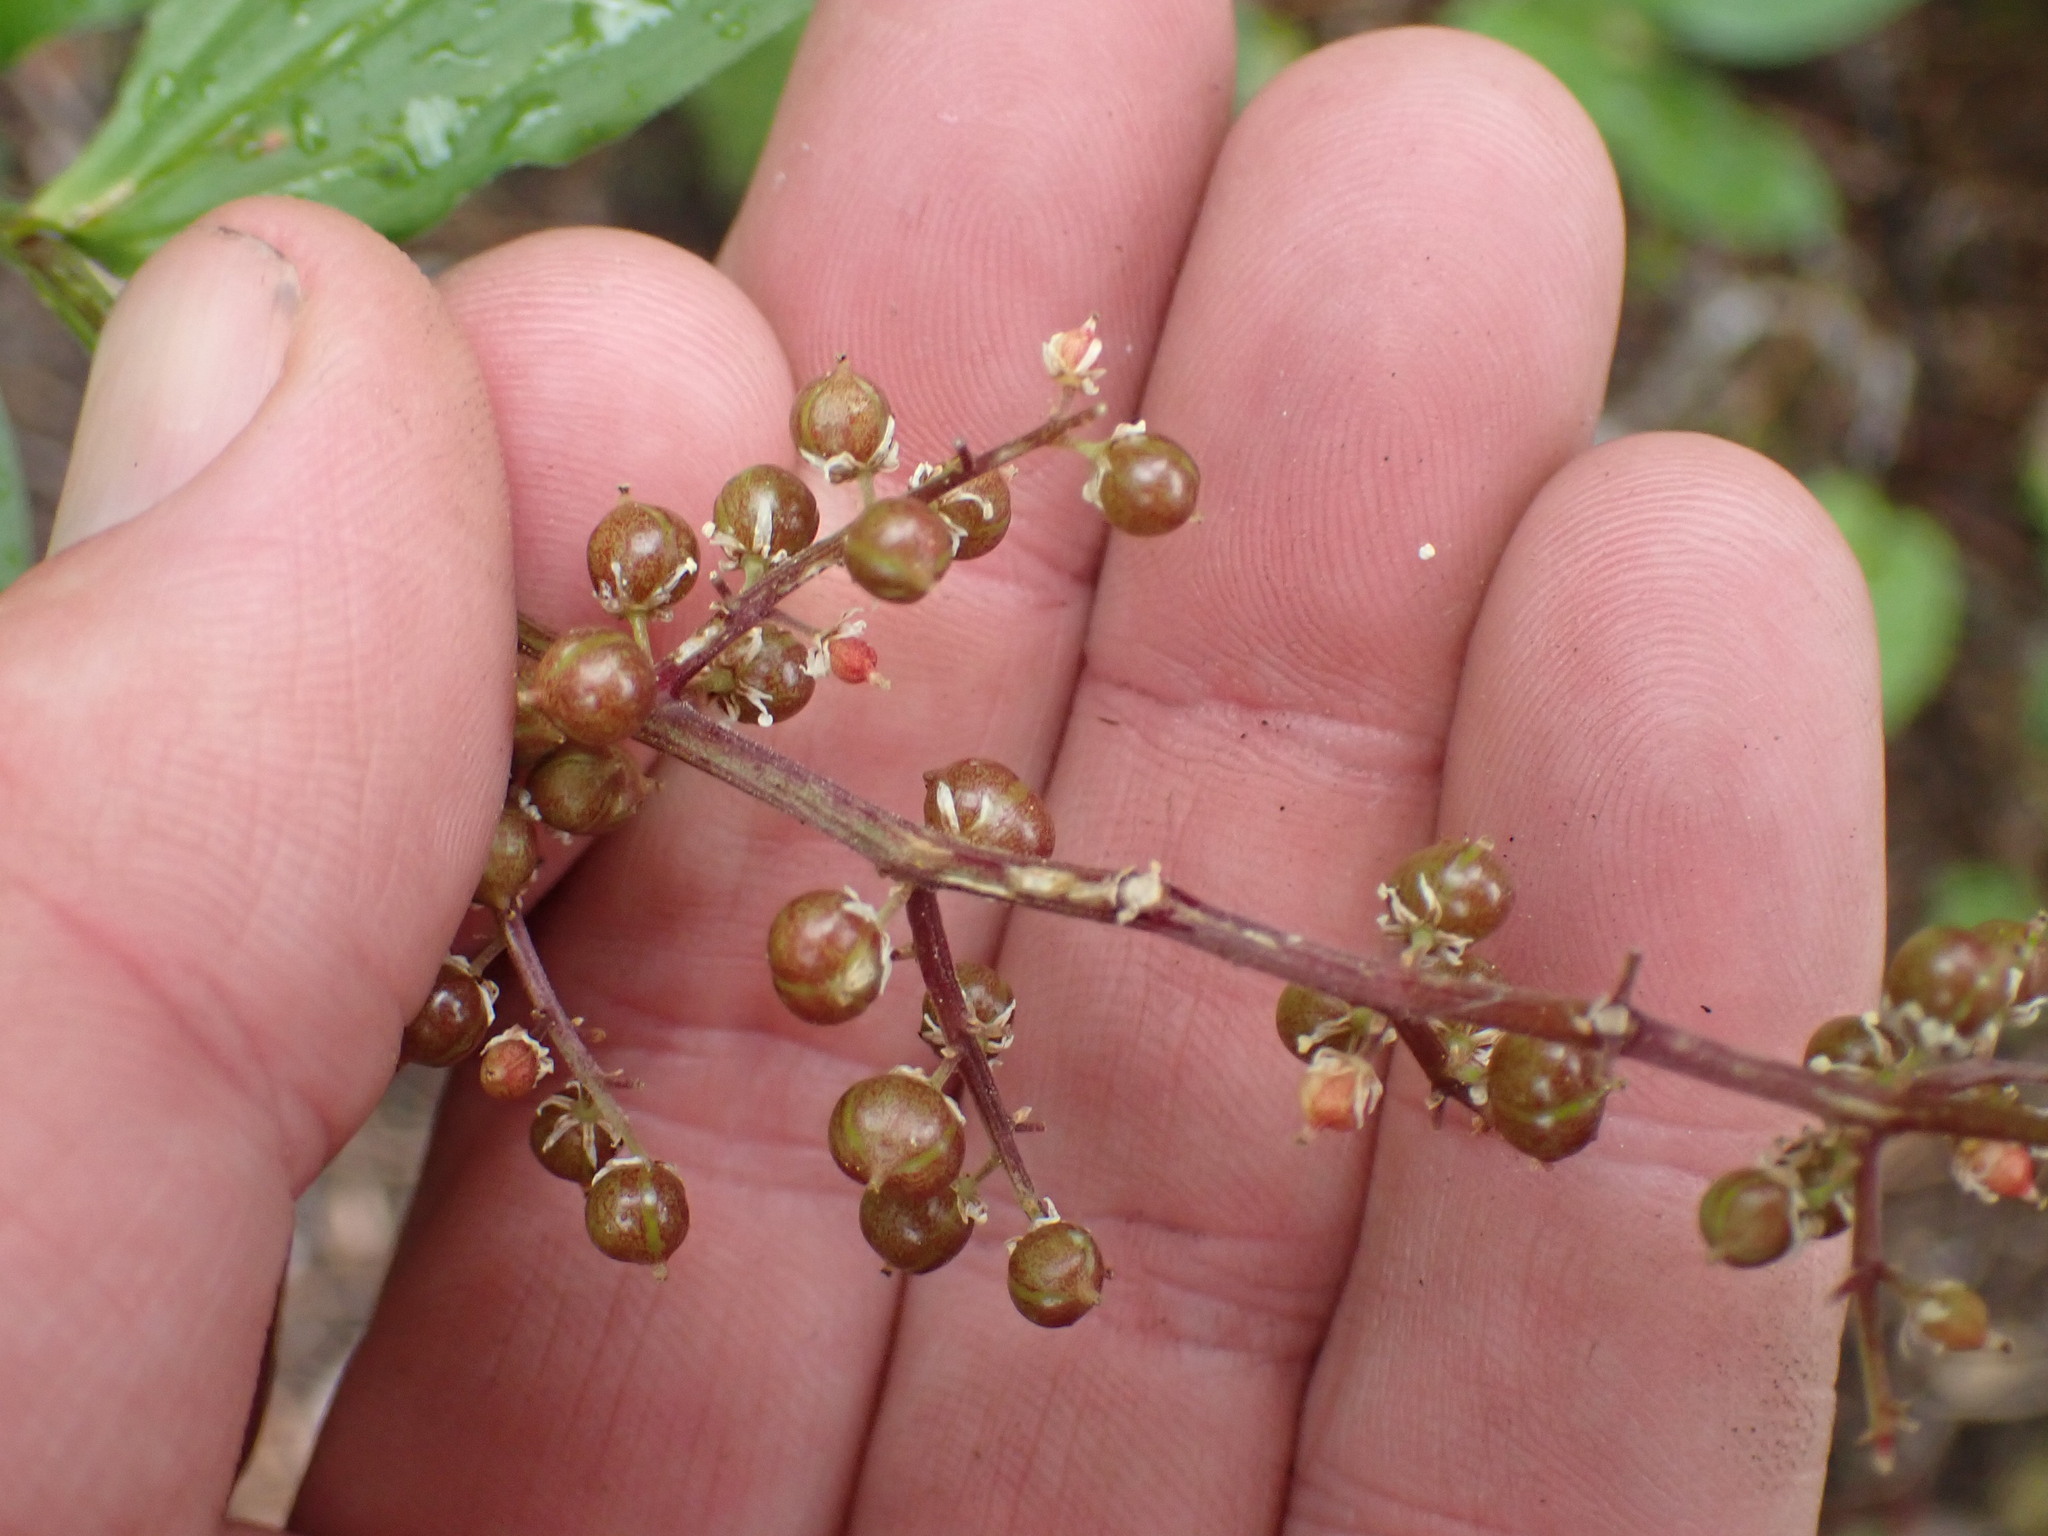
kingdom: Plantae
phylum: Tracheophyta
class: Liliopsida
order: Asparagales
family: Asparagaceae
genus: Maianthemum
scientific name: Maianthemum racemosum
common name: False spikenard
